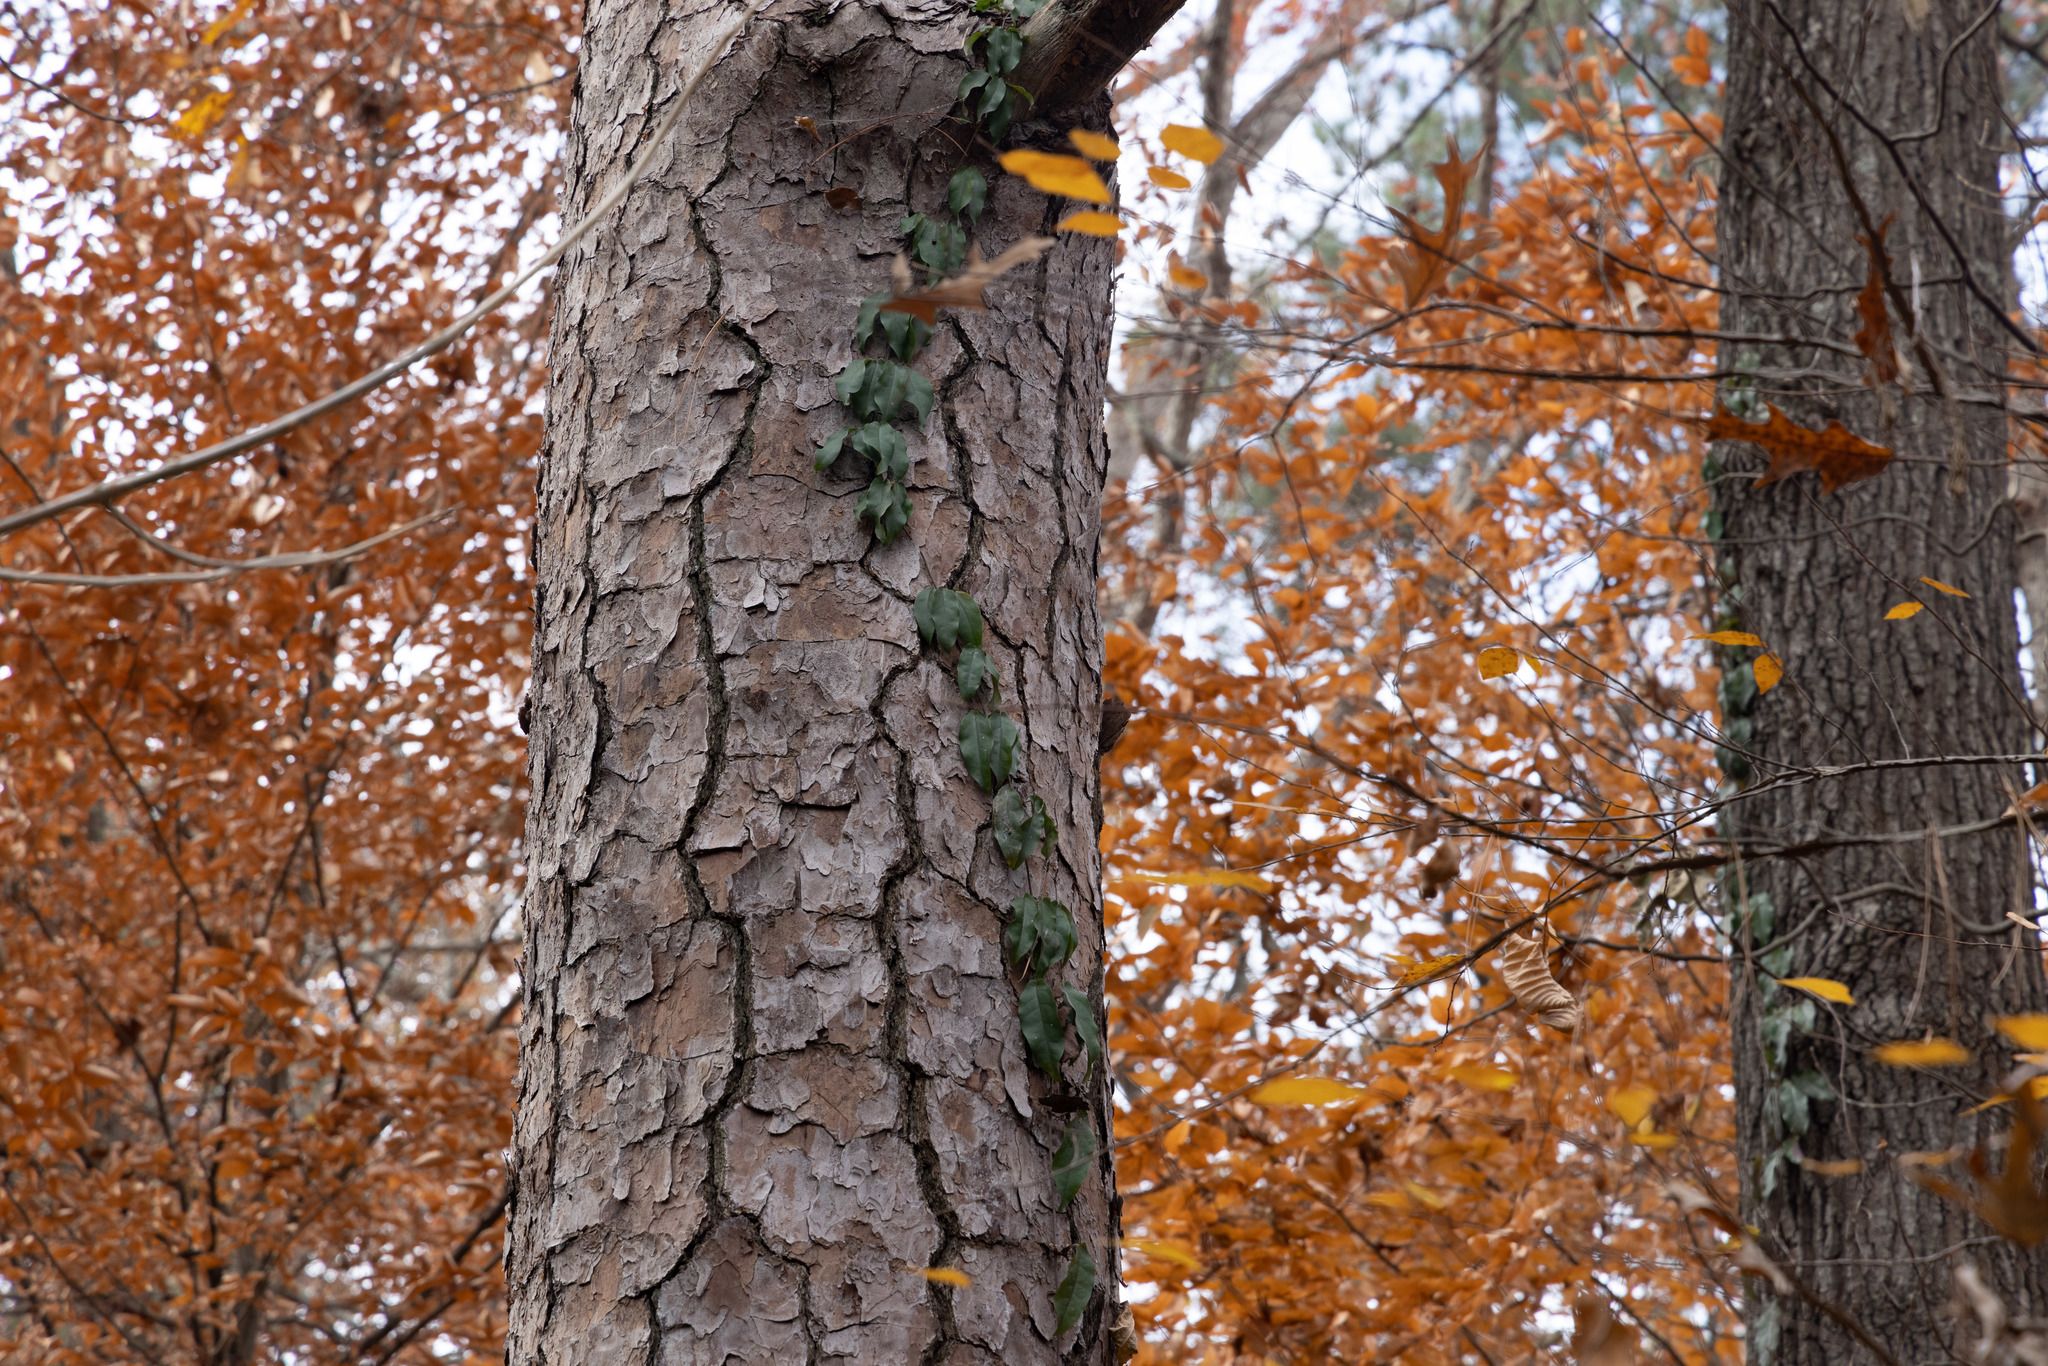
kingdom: Plantae
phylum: Tracheophyta
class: Magnoliopsida
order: Lamiales
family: Bignoniaceae
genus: Bignonia
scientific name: Bignonia capreolata
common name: Crossvine
